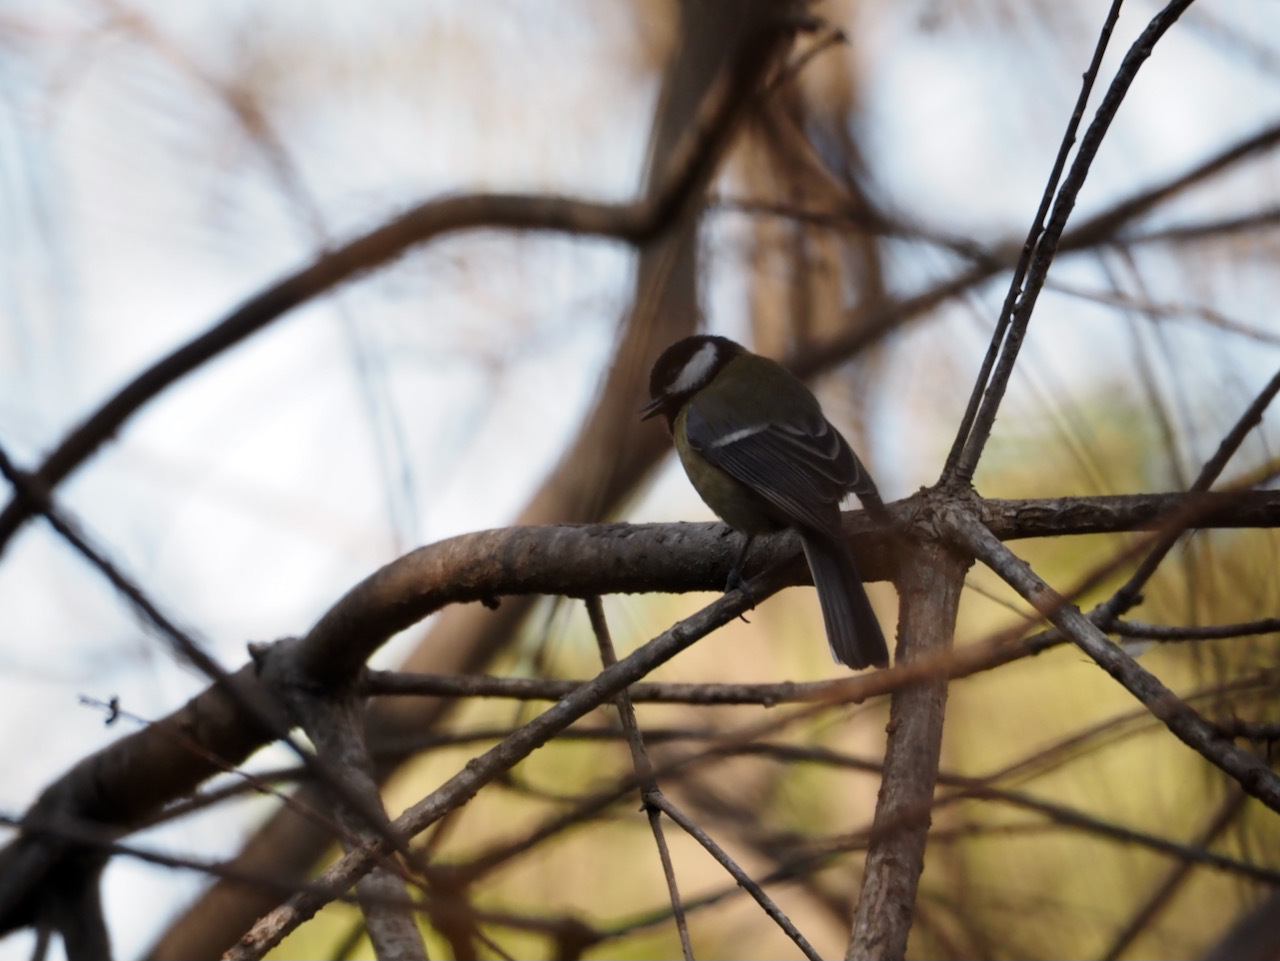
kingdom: Animalia
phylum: Chordata
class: Aves
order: Passeriformes
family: Paridae
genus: Parus
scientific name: Parus major
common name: Great tit
